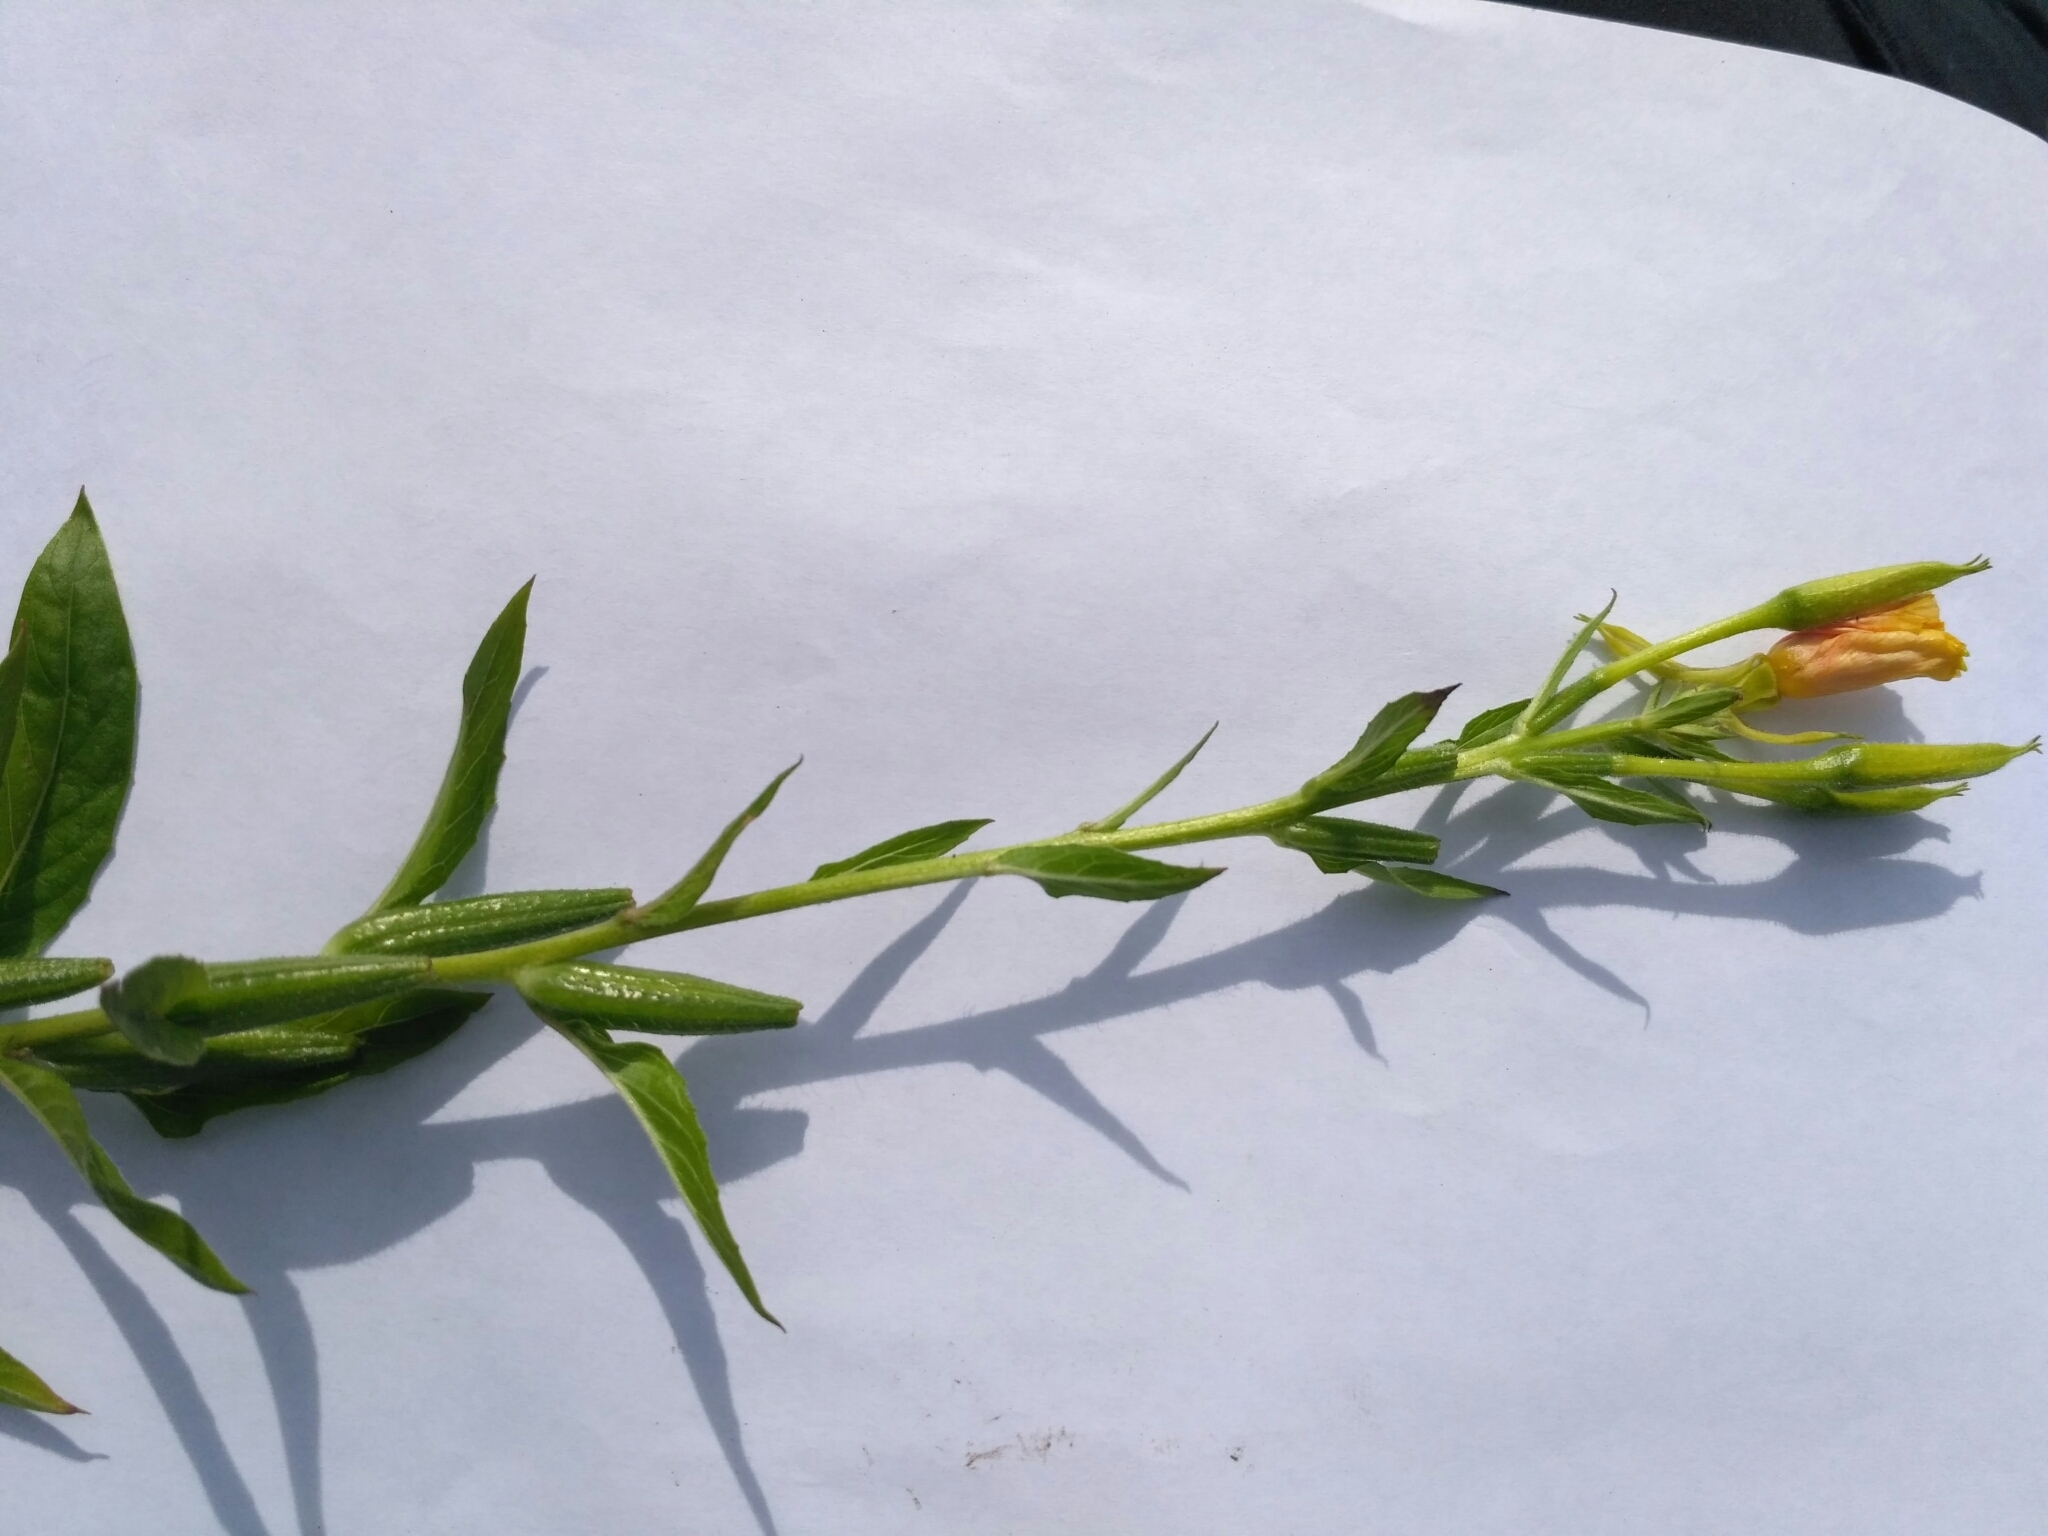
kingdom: Plantae
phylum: Tracheophyta
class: Magnoliopsida
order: Myrtales
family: Onagraceae
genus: Oenothera
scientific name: Oenothera biennis
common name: Common evening-primrose
